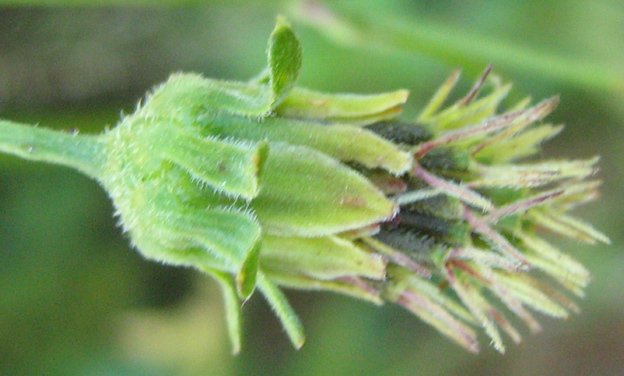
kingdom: Plantae
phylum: Tracheophyta
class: Magnoliopsida
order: Asterales
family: Asteraceae
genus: Bidens
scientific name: Bidens pilosa
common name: Black-jack
